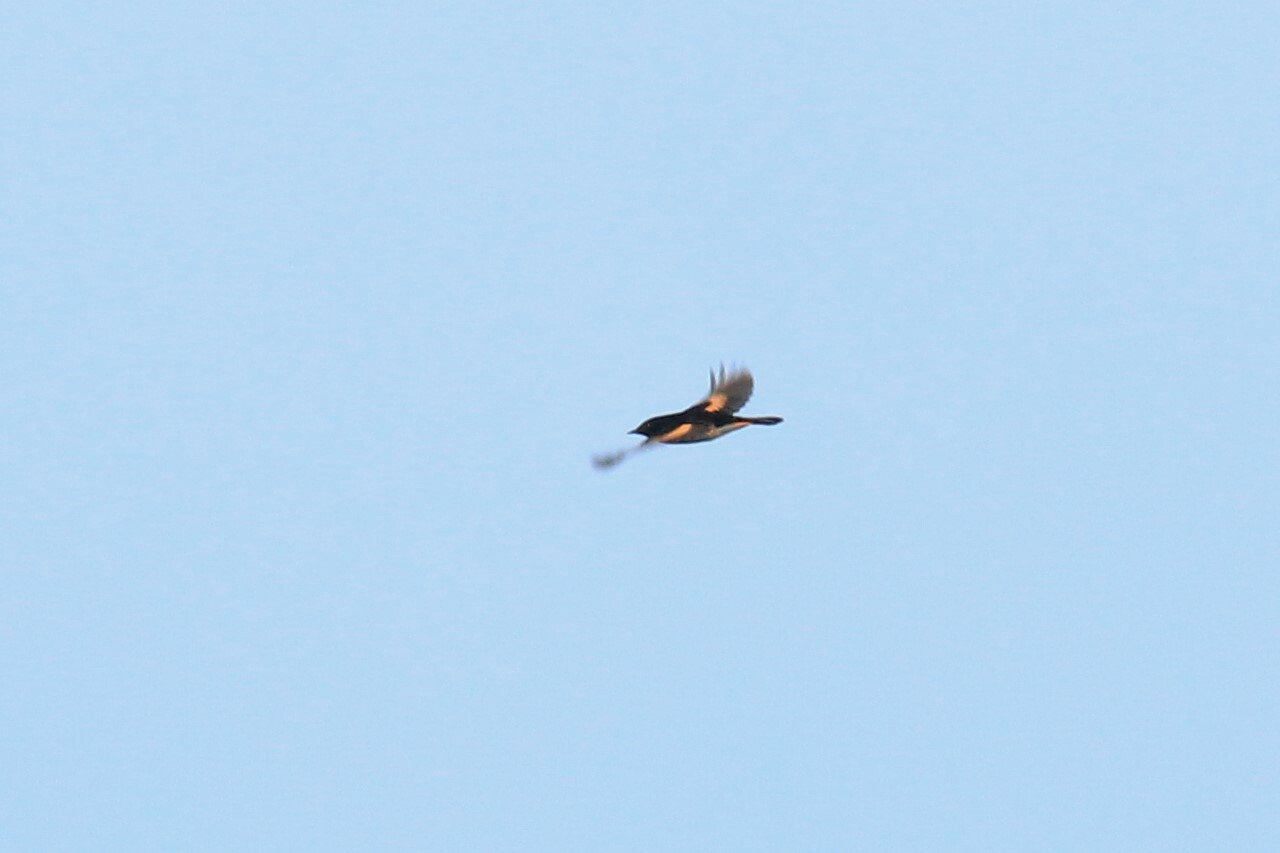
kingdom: Animalia
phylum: Chordata
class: Aves
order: Passeriformes
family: Parulidae
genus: Setophaga
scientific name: Setophaga ruticilla
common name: American redstart
